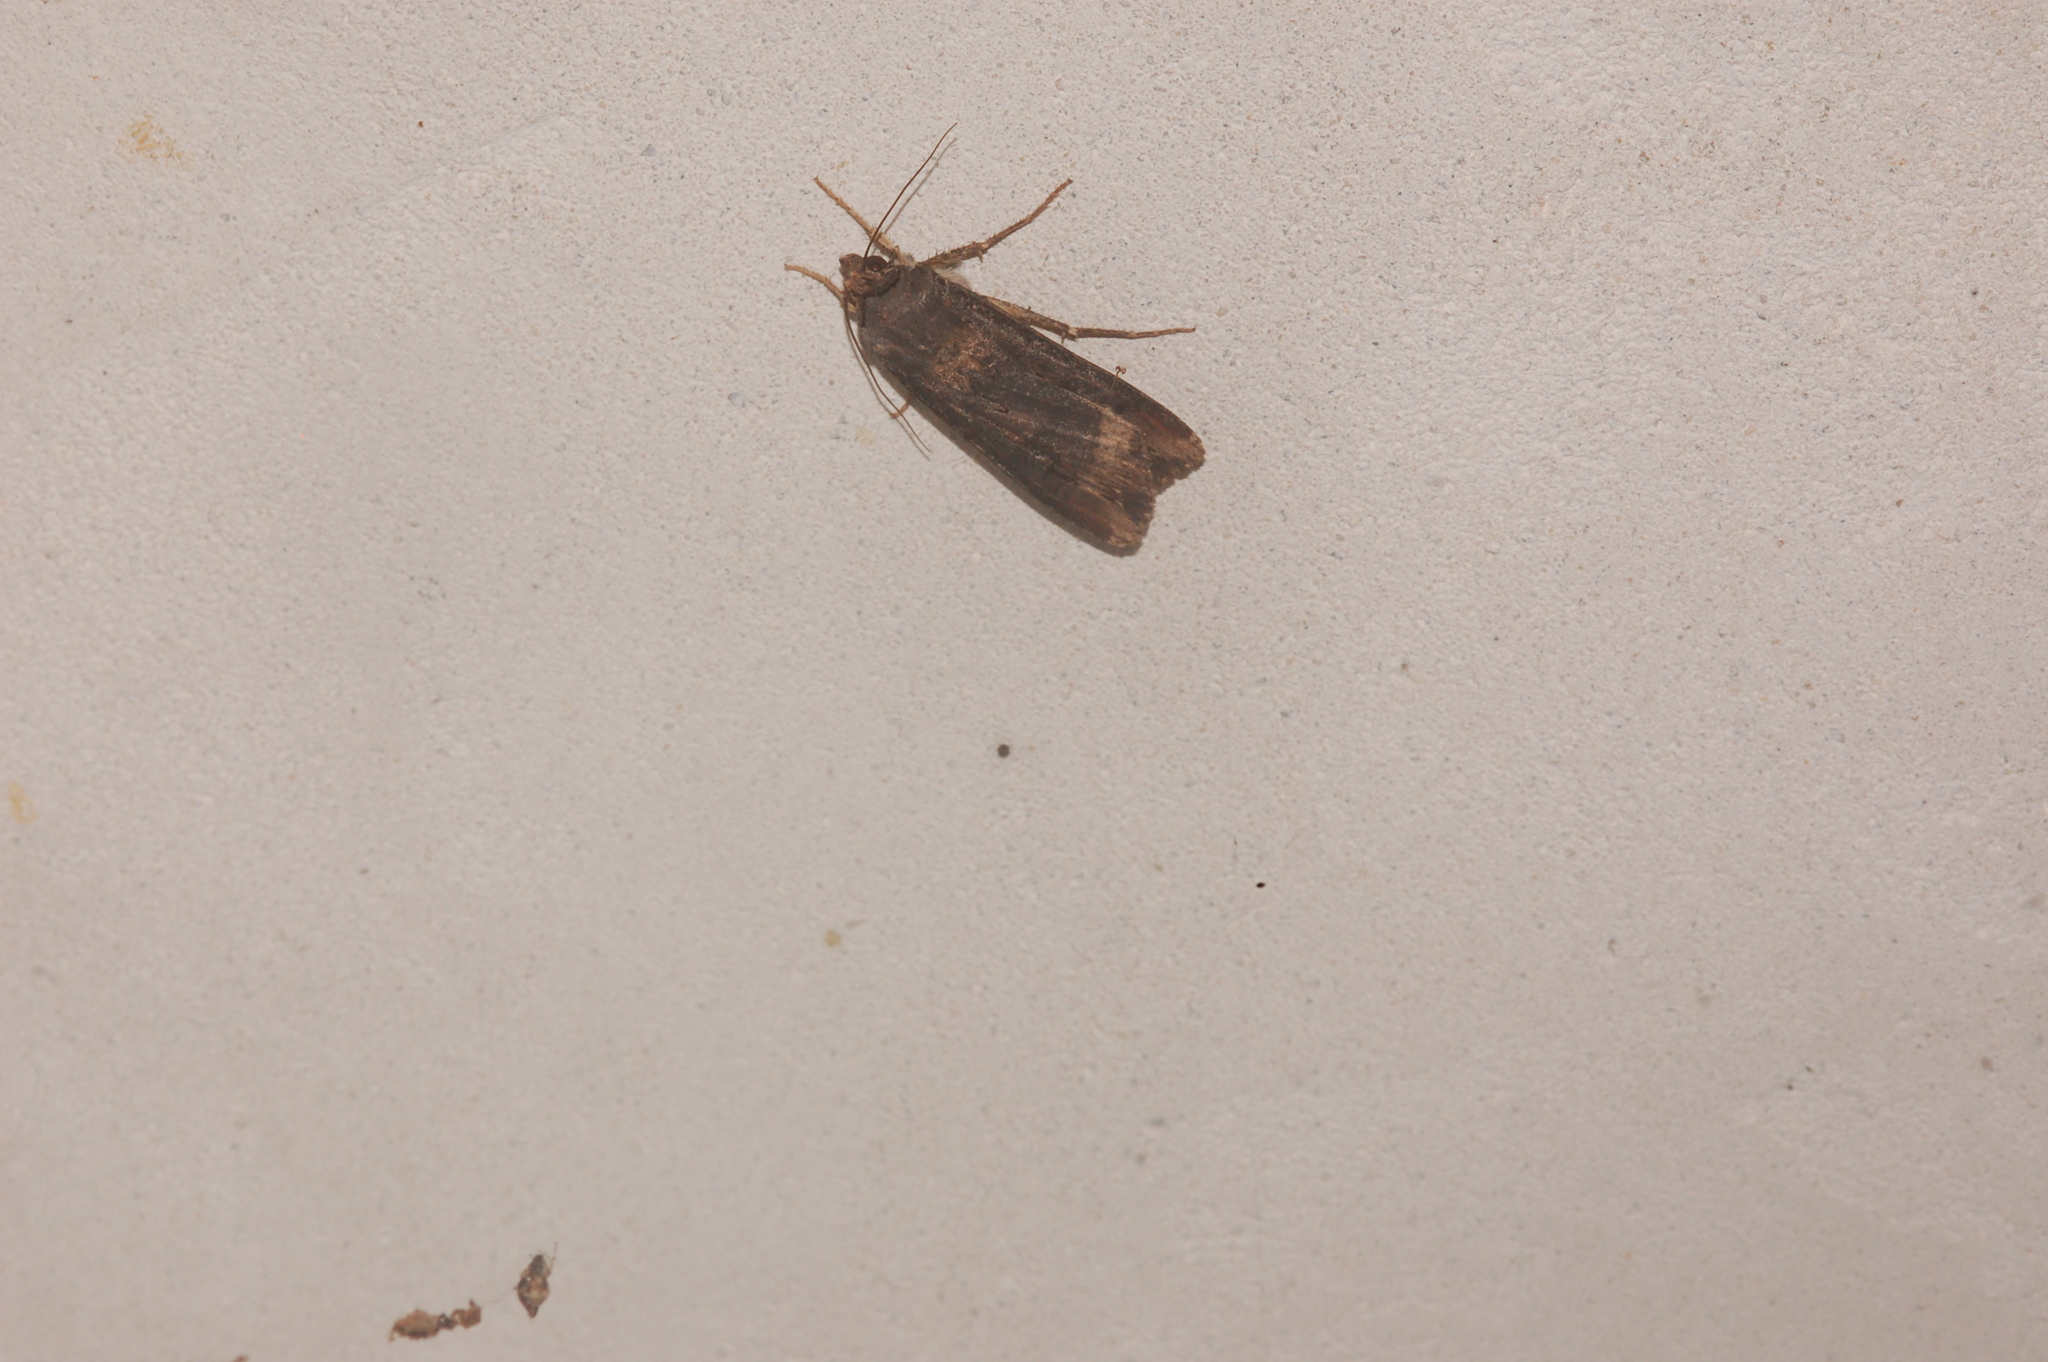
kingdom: Animalia
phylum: Arthropoda
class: Insecta
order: Lepidoptera
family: Noctuidae
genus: Agrotis
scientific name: Agrotis ipsilon
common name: Dark sword-grass
